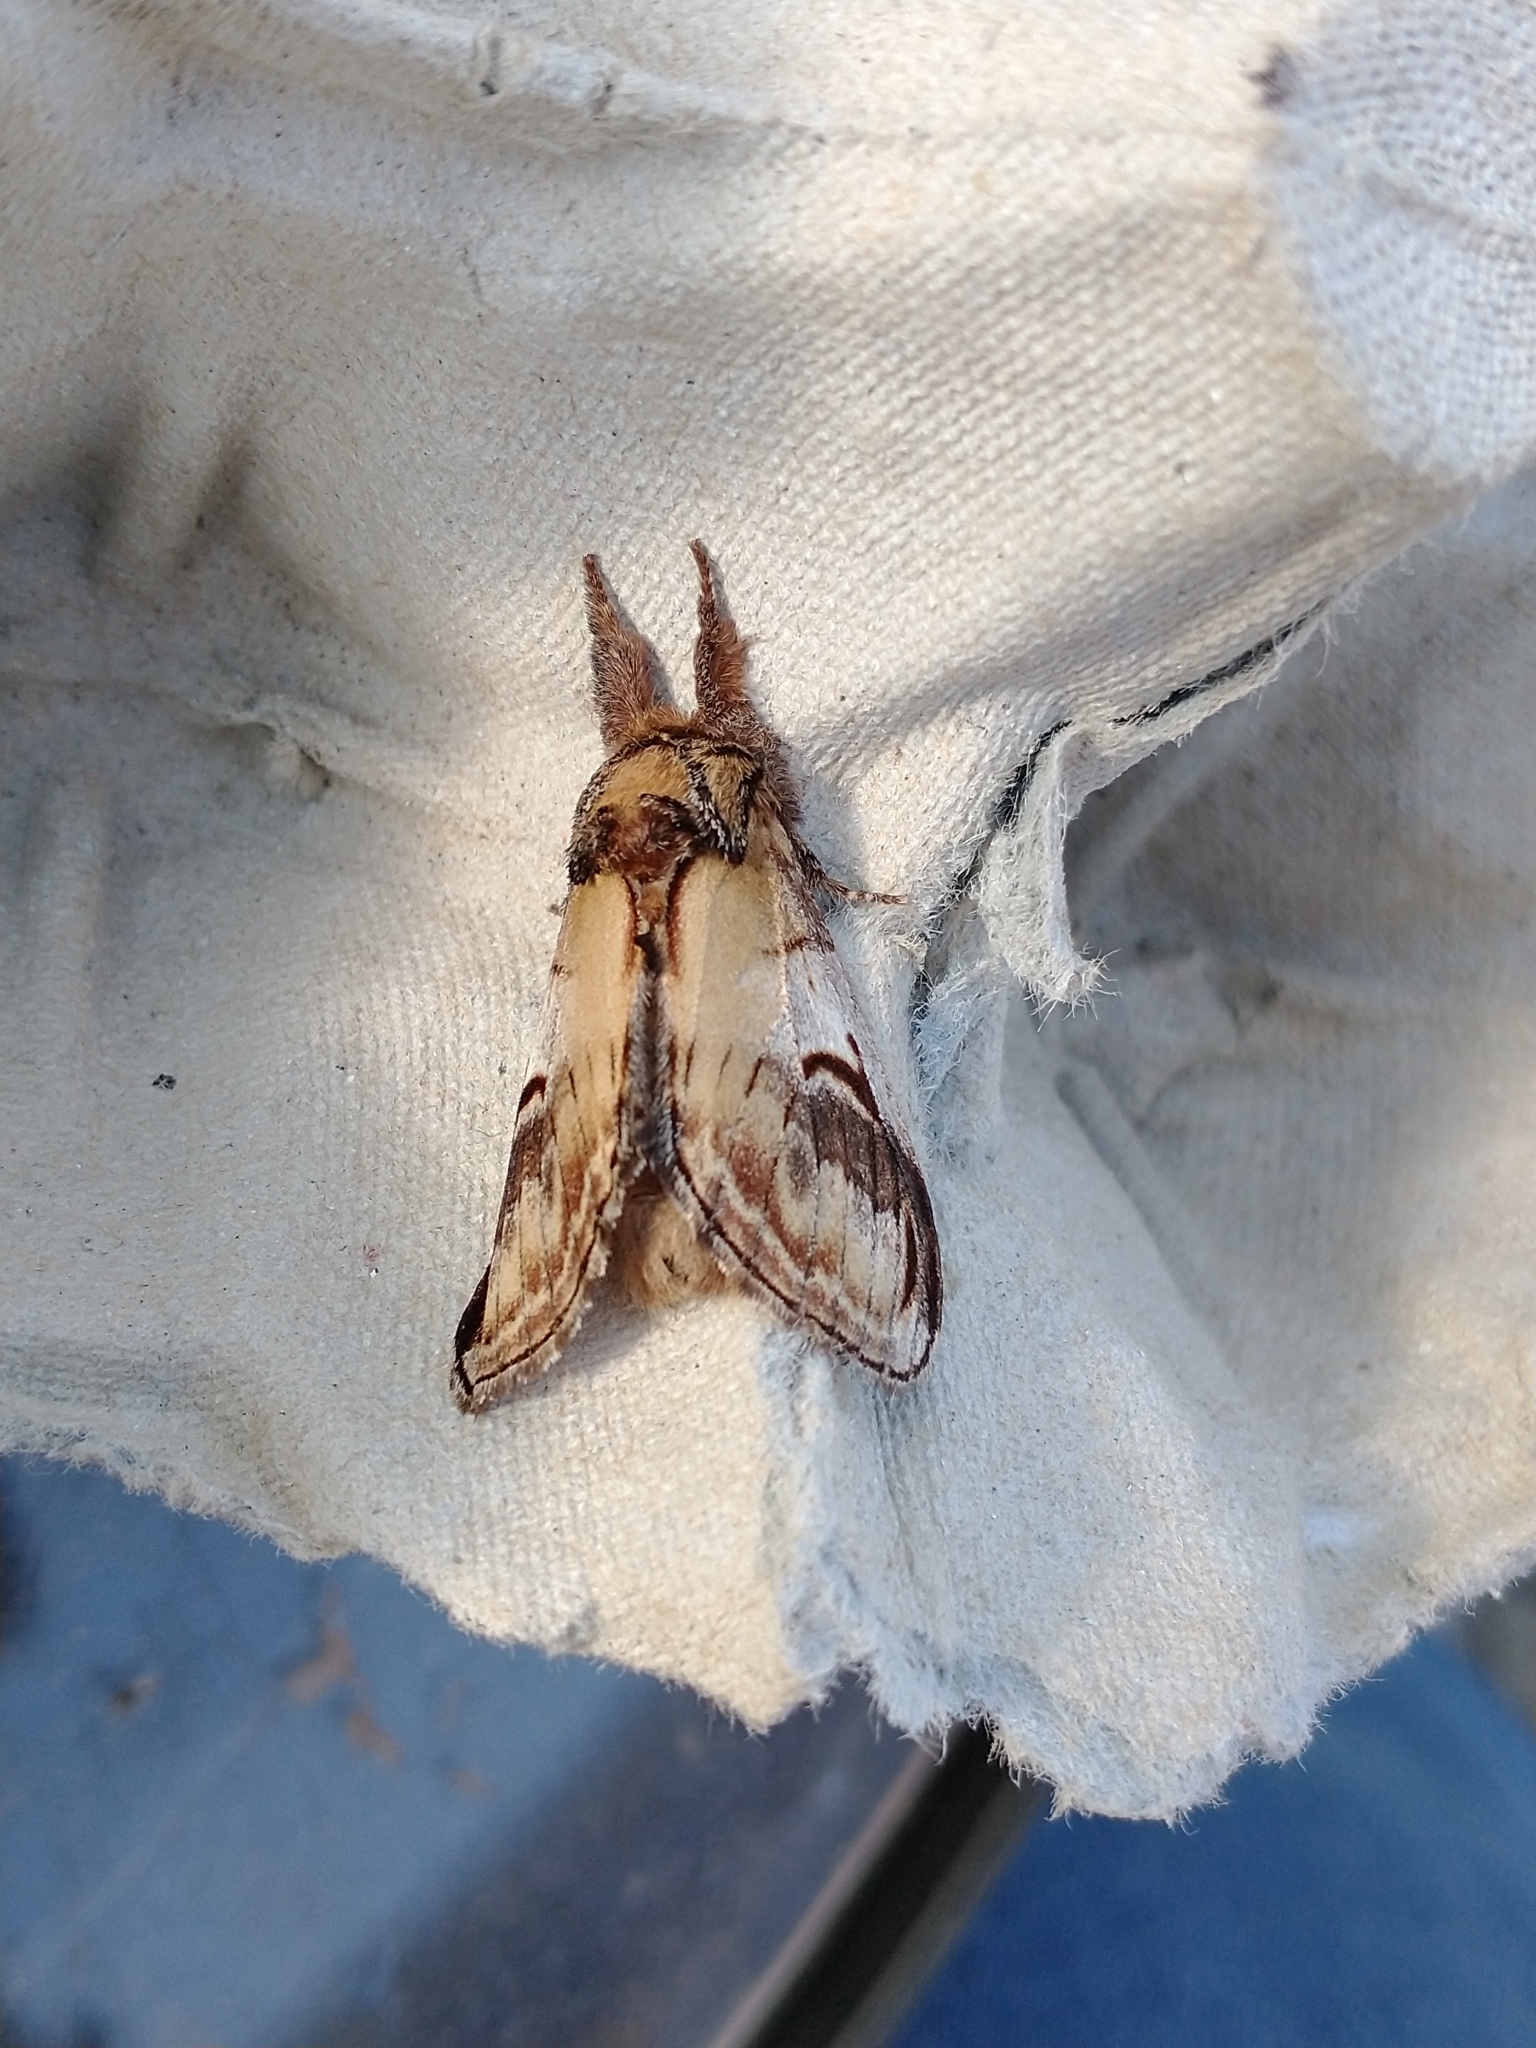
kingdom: Animalia
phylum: Arthropoda
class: Insecta
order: Lepidoptera
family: Notodontidae
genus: Notodonta
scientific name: Notodonta ziczac
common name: Pebble prominent
